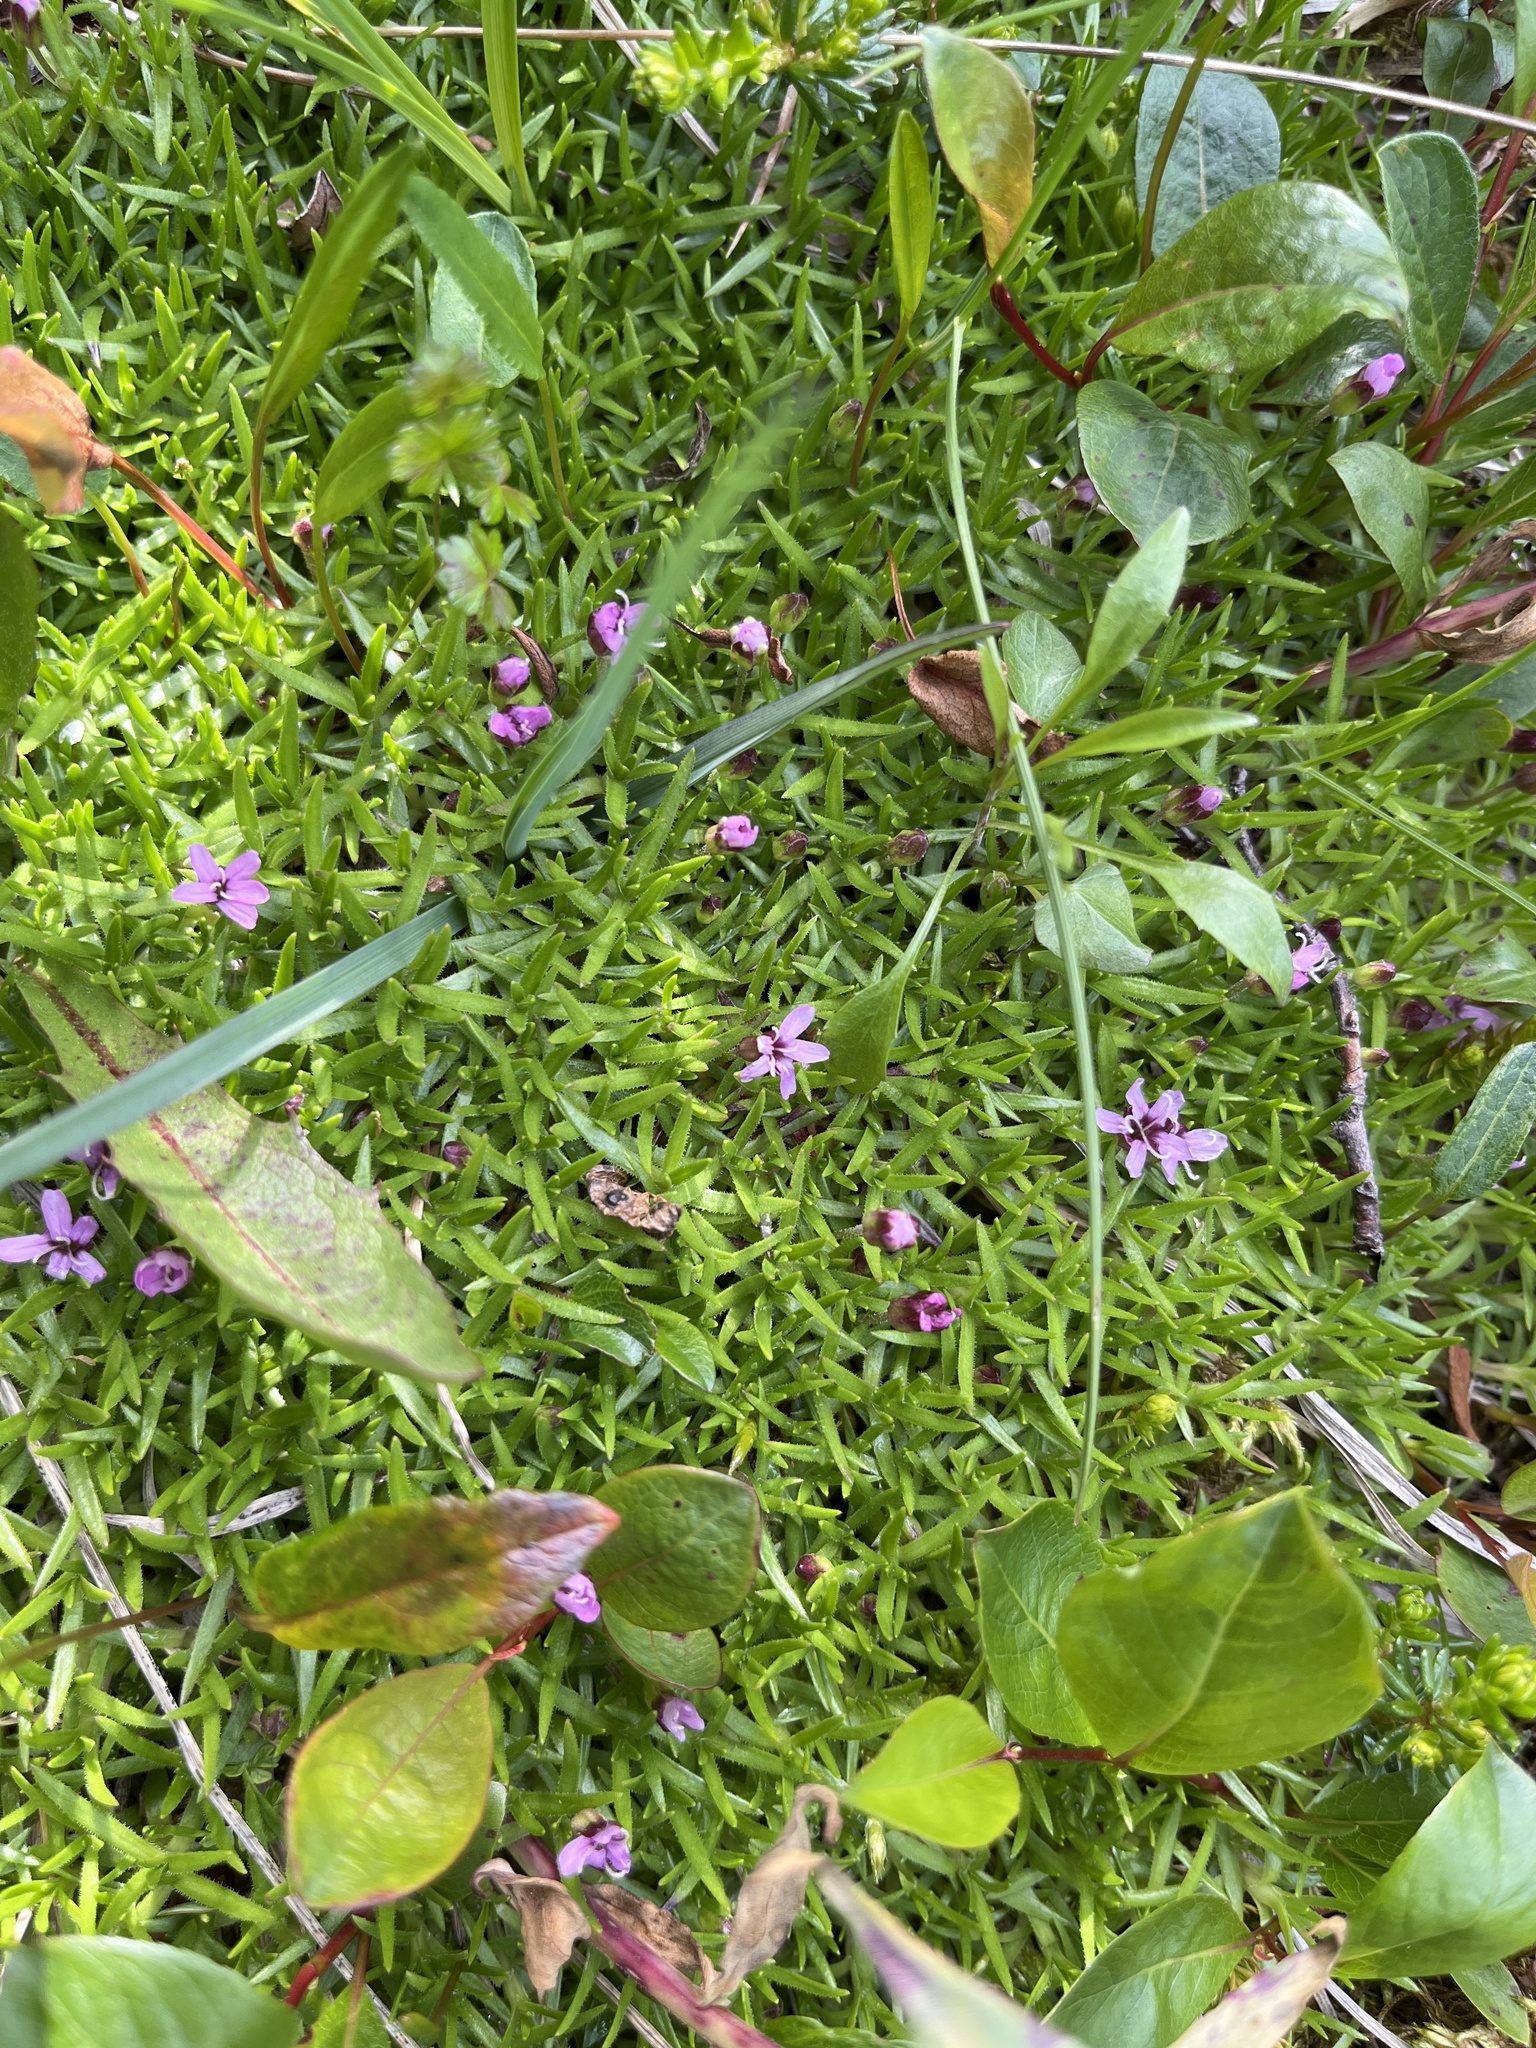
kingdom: Plantae
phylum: Tracheophyta
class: Magnoliopsida
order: Caryophyllales
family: Caryophyllaceae
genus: Silene
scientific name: Silene acaulis
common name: Moss campion
